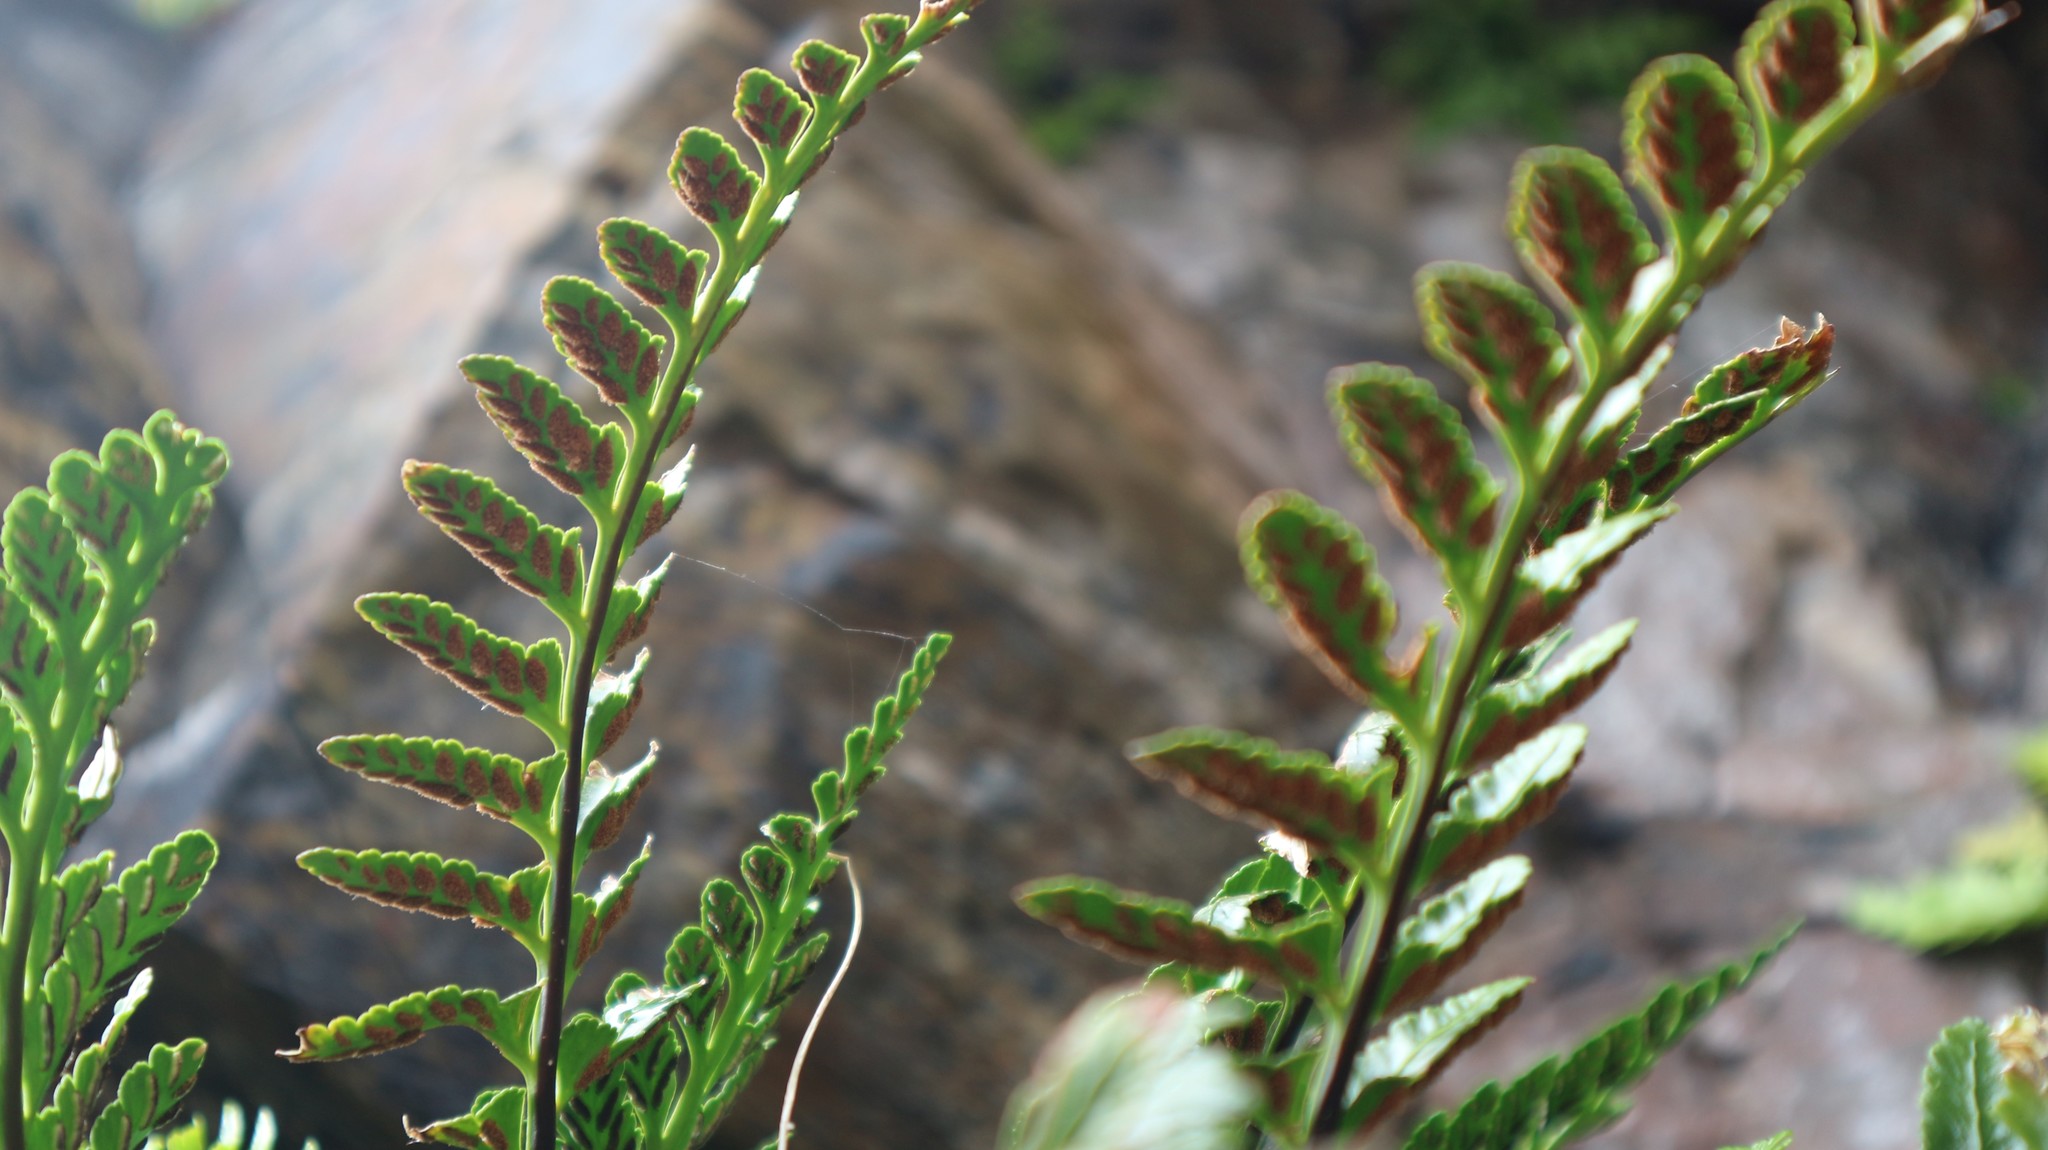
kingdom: Plantae
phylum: Tracheophyta
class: Polypodiopsida
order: Polypodiales
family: Aspleniaceae
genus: Asplenium
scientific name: Asplenium marinum
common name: Sea spleenwort
